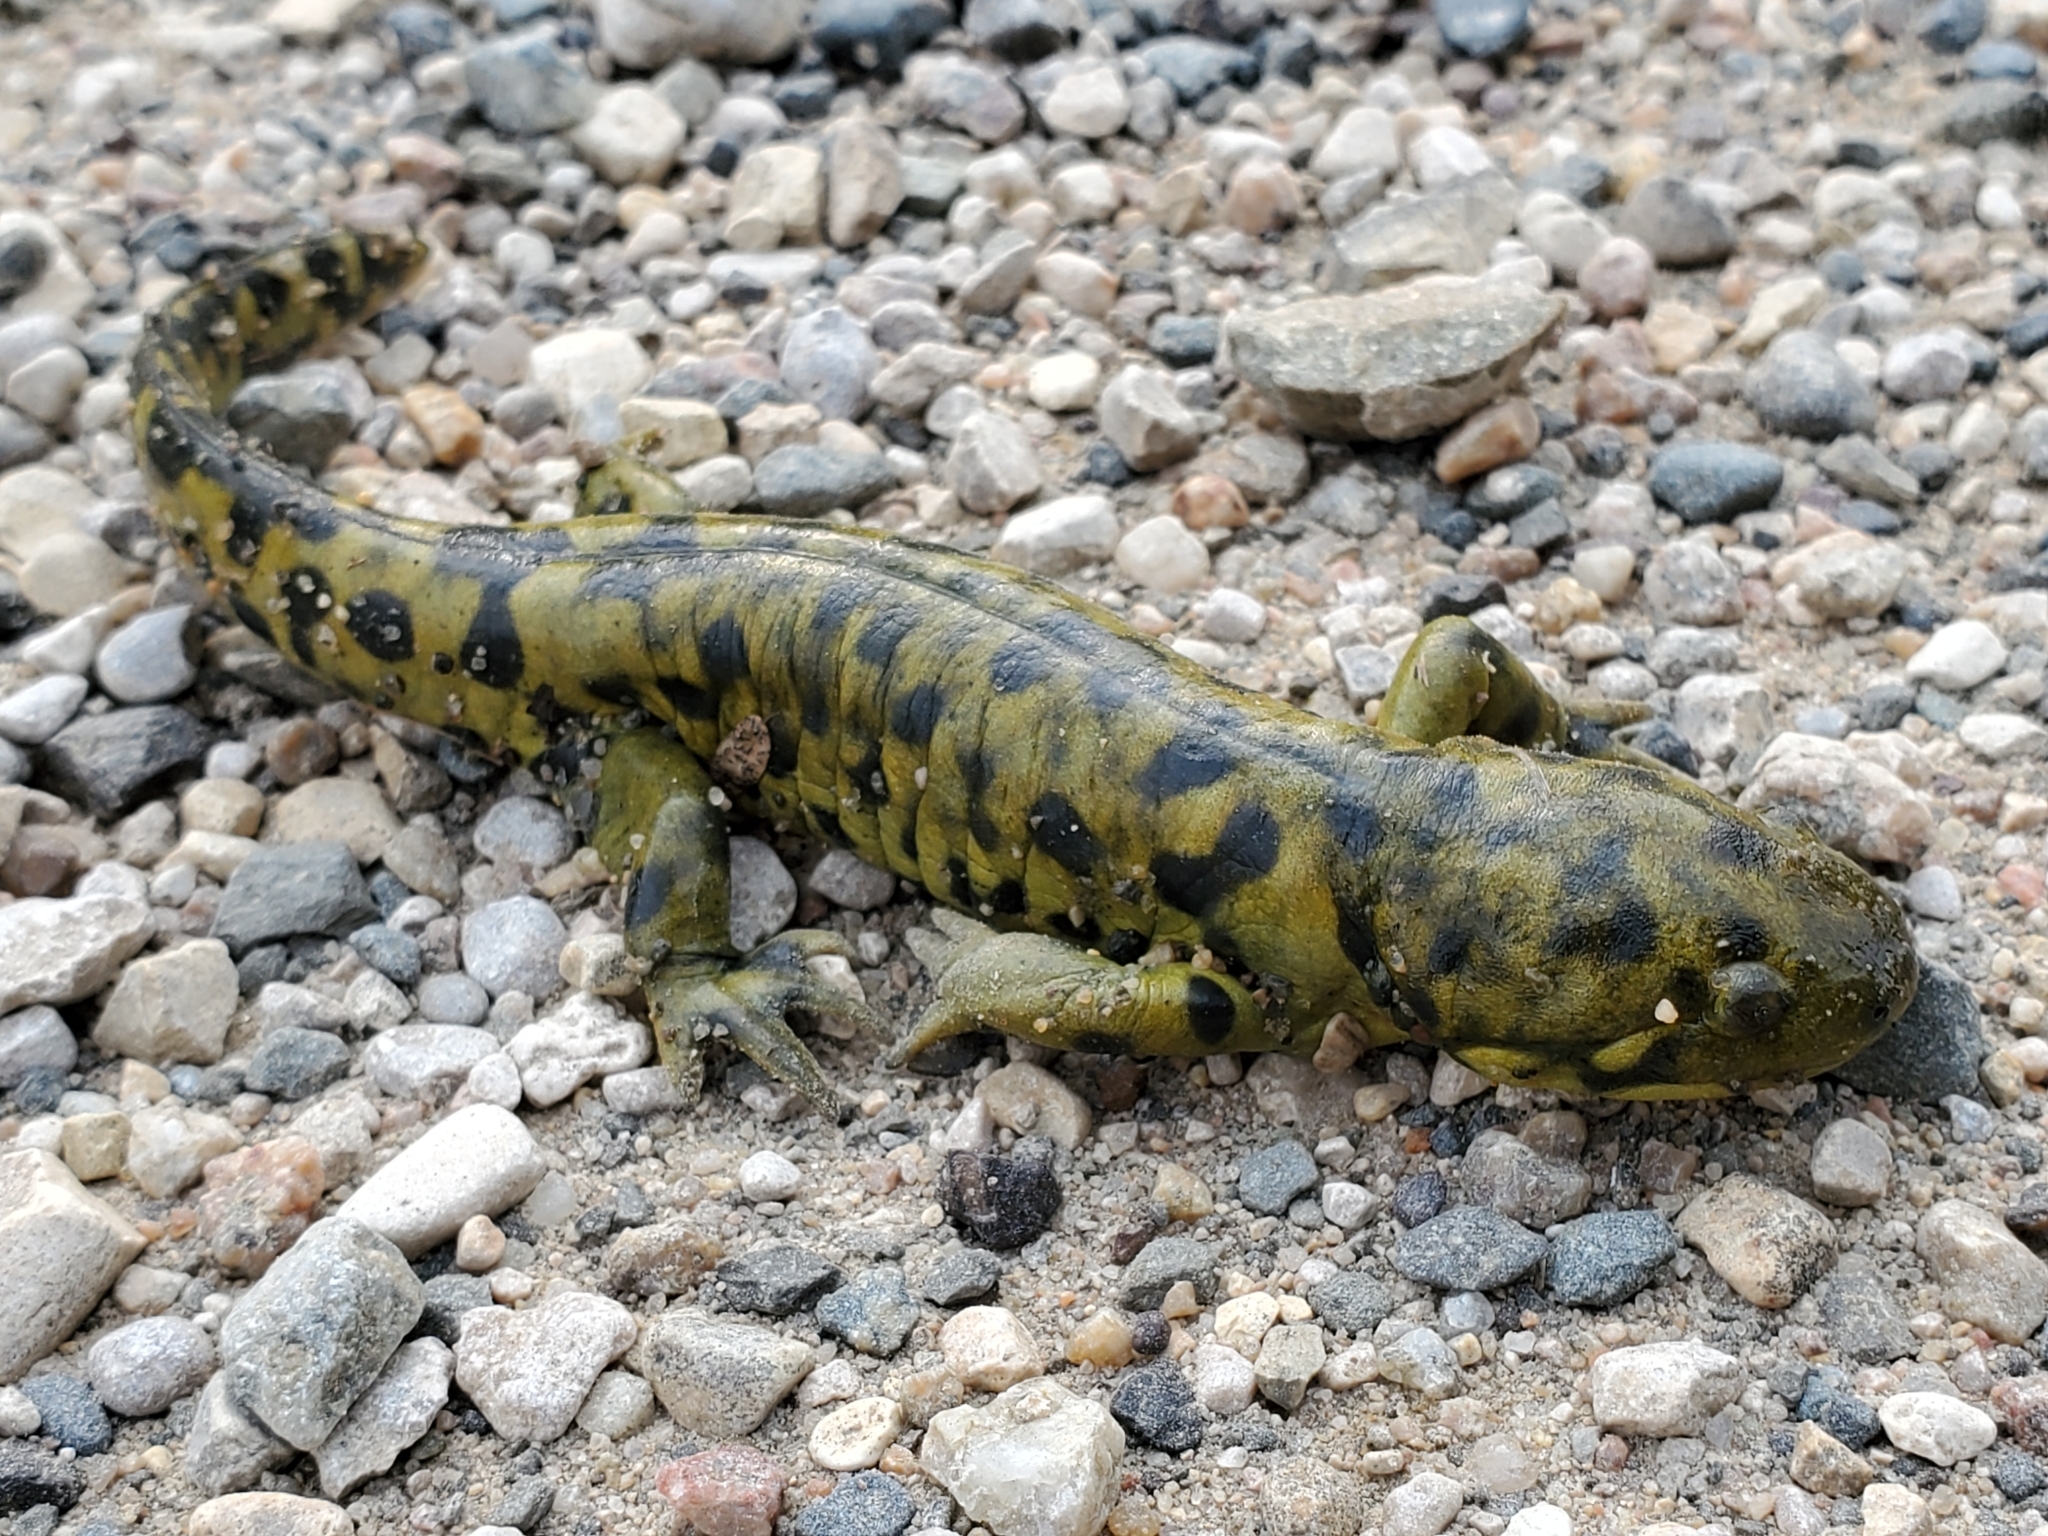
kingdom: Animalia
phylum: Chordata
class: Amphibia
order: Caudata
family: Ambystomatidae
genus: Ambystoma
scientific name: Ambystoma mavortium
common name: Western tiger salamander
